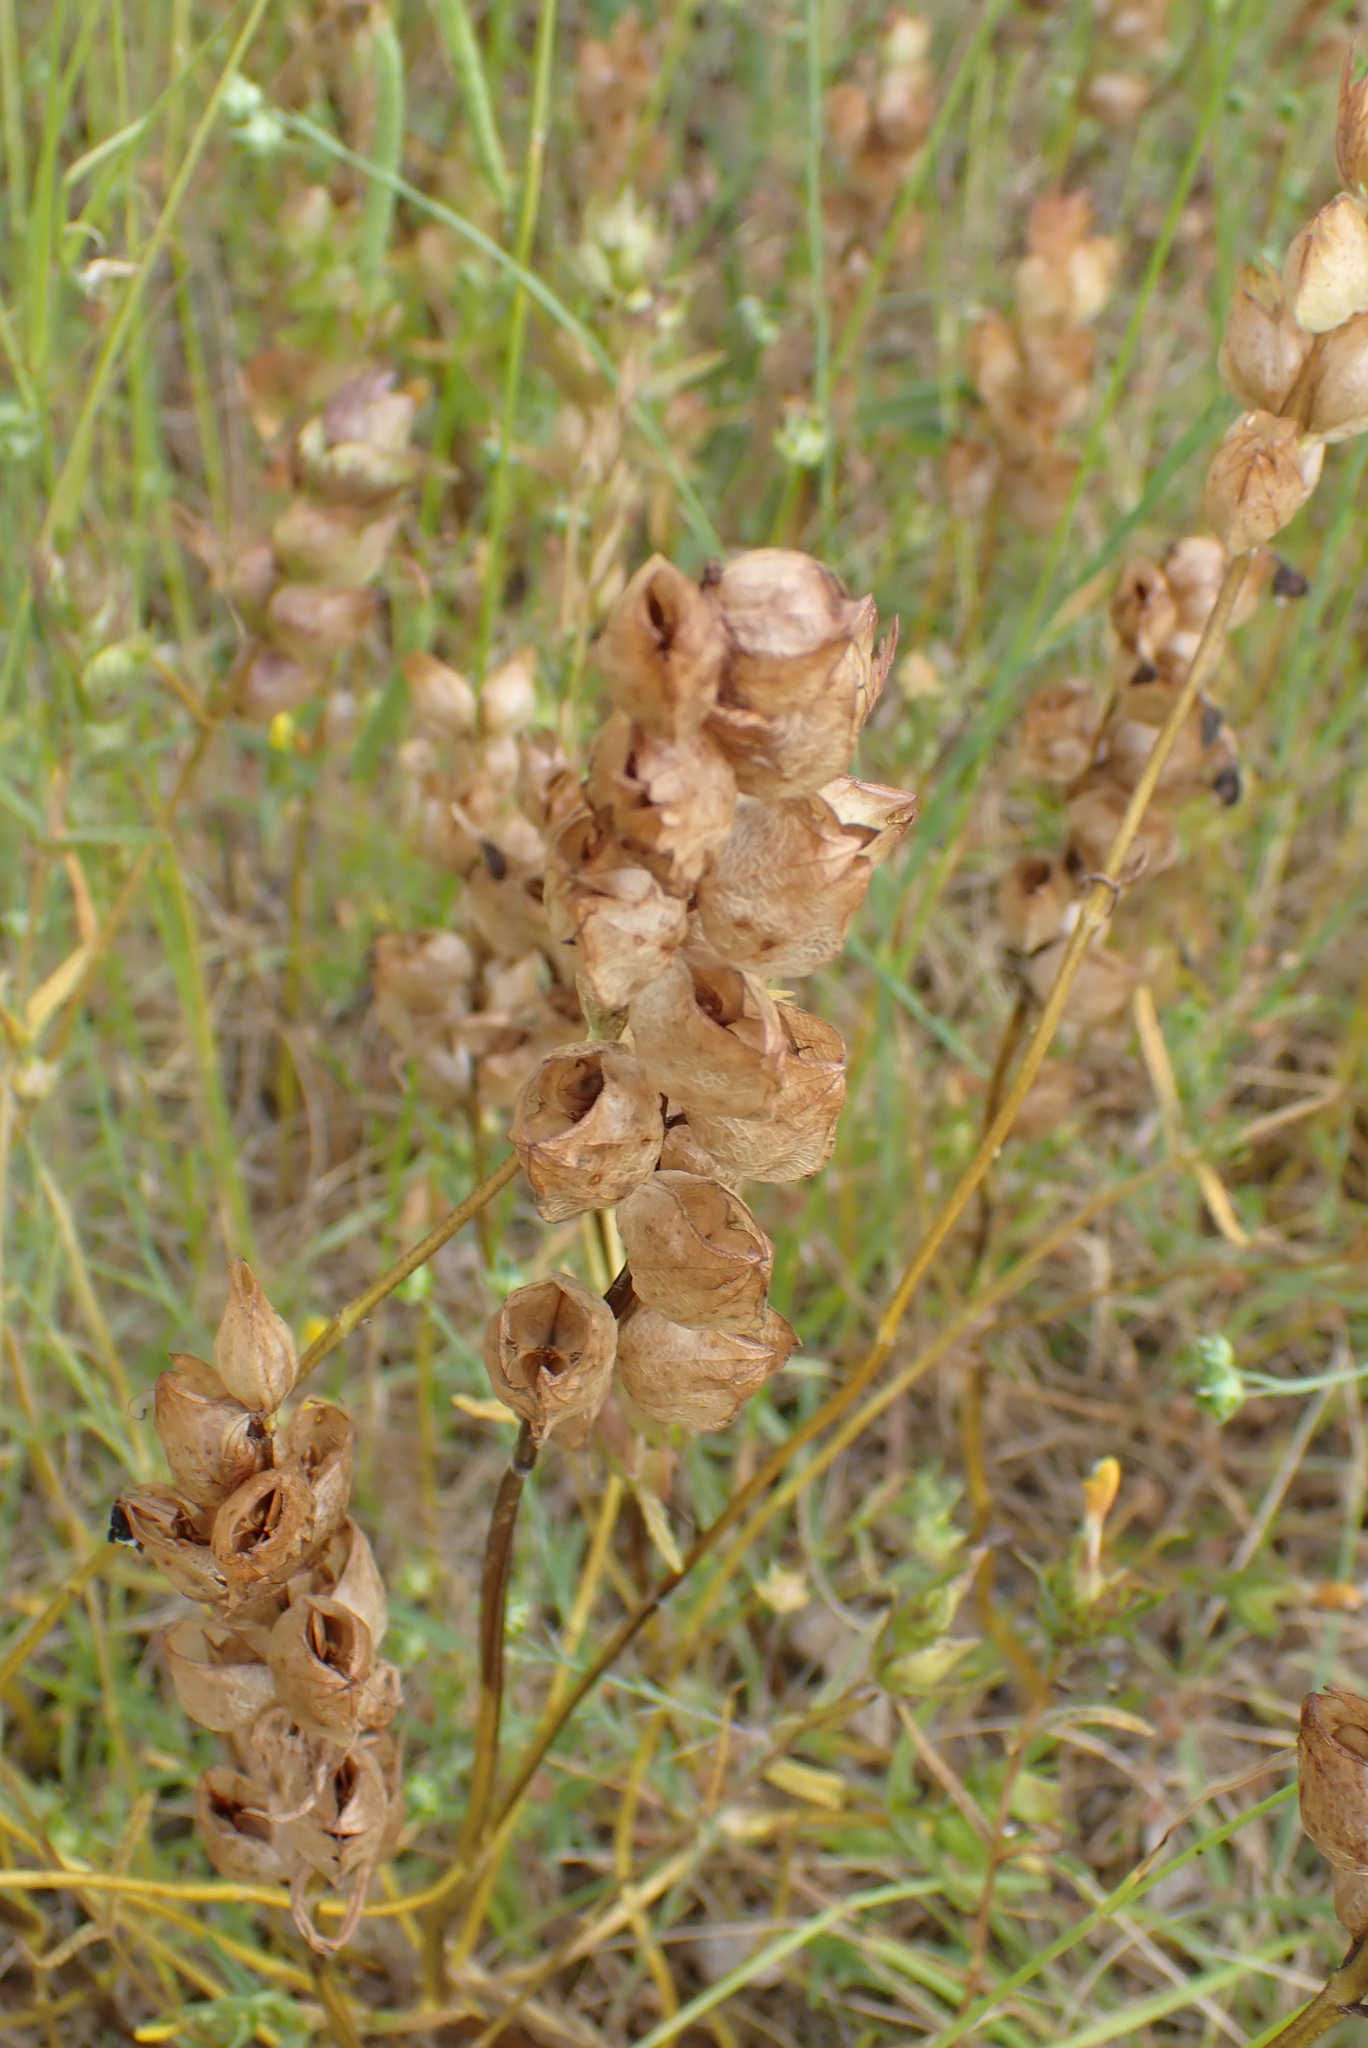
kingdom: Plantae
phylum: Tracheophyta
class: Magnoliopsida
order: Lamiales
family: Orobanchaceae
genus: Rhinanthus
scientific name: Rhinanthus minor
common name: Yellow-rattle
